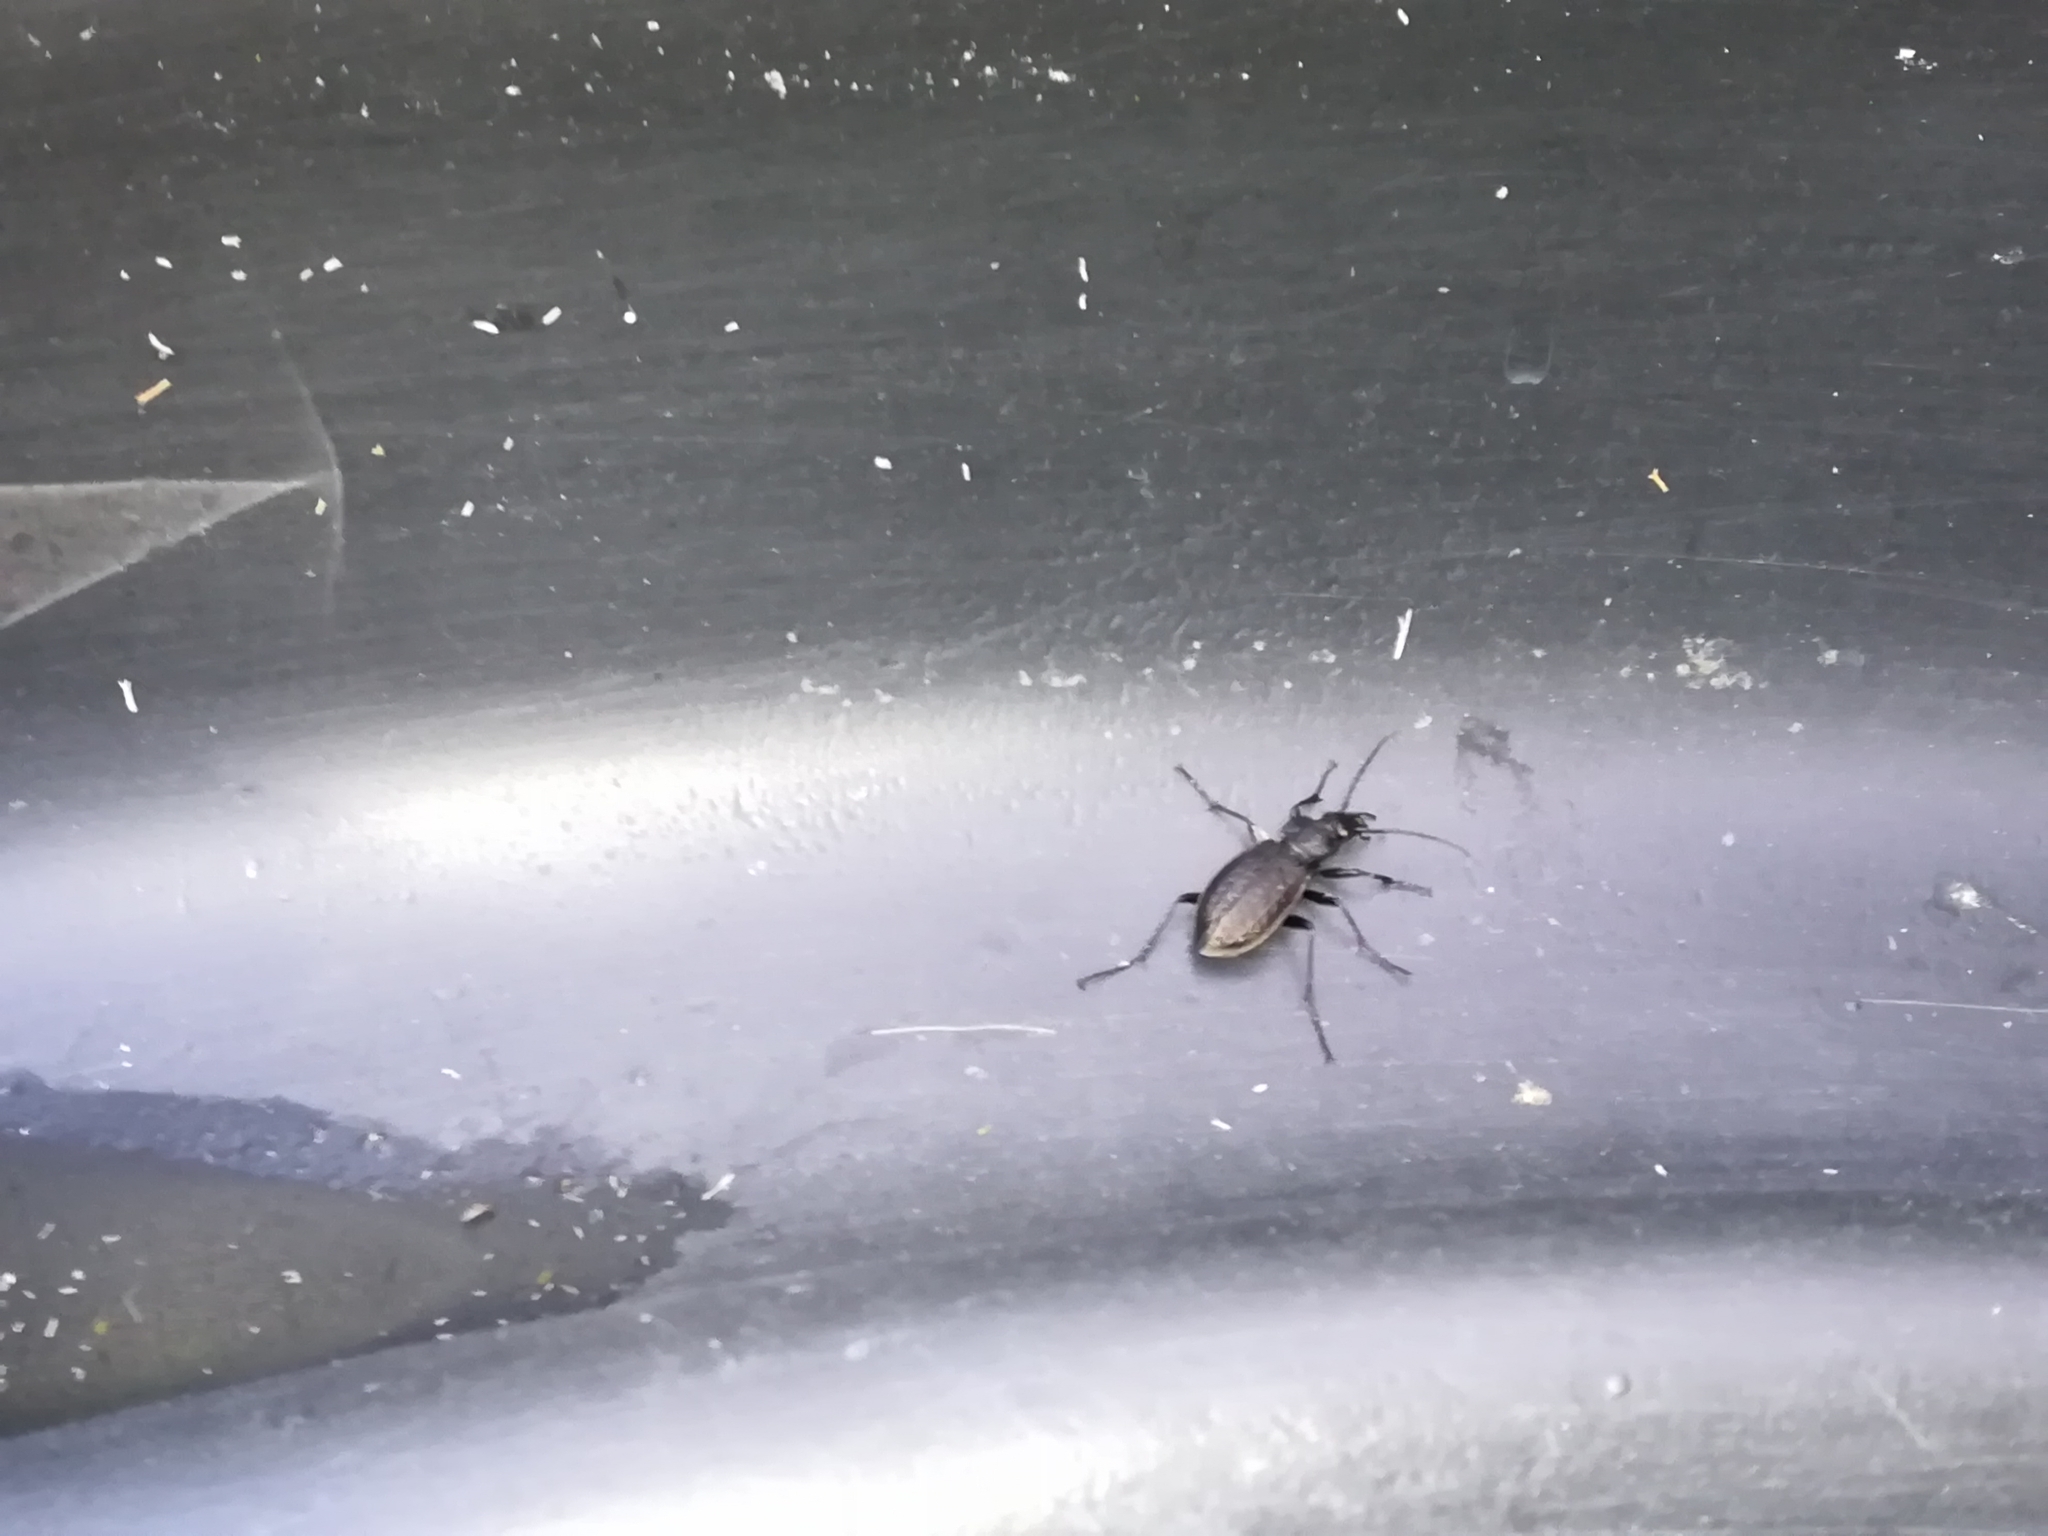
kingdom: Animalia
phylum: Arthropoda
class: Insecta
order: Coleoptera
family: Carabidae
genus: Carabus
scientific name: Carabus granulatus
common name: Granulate ground beetle
